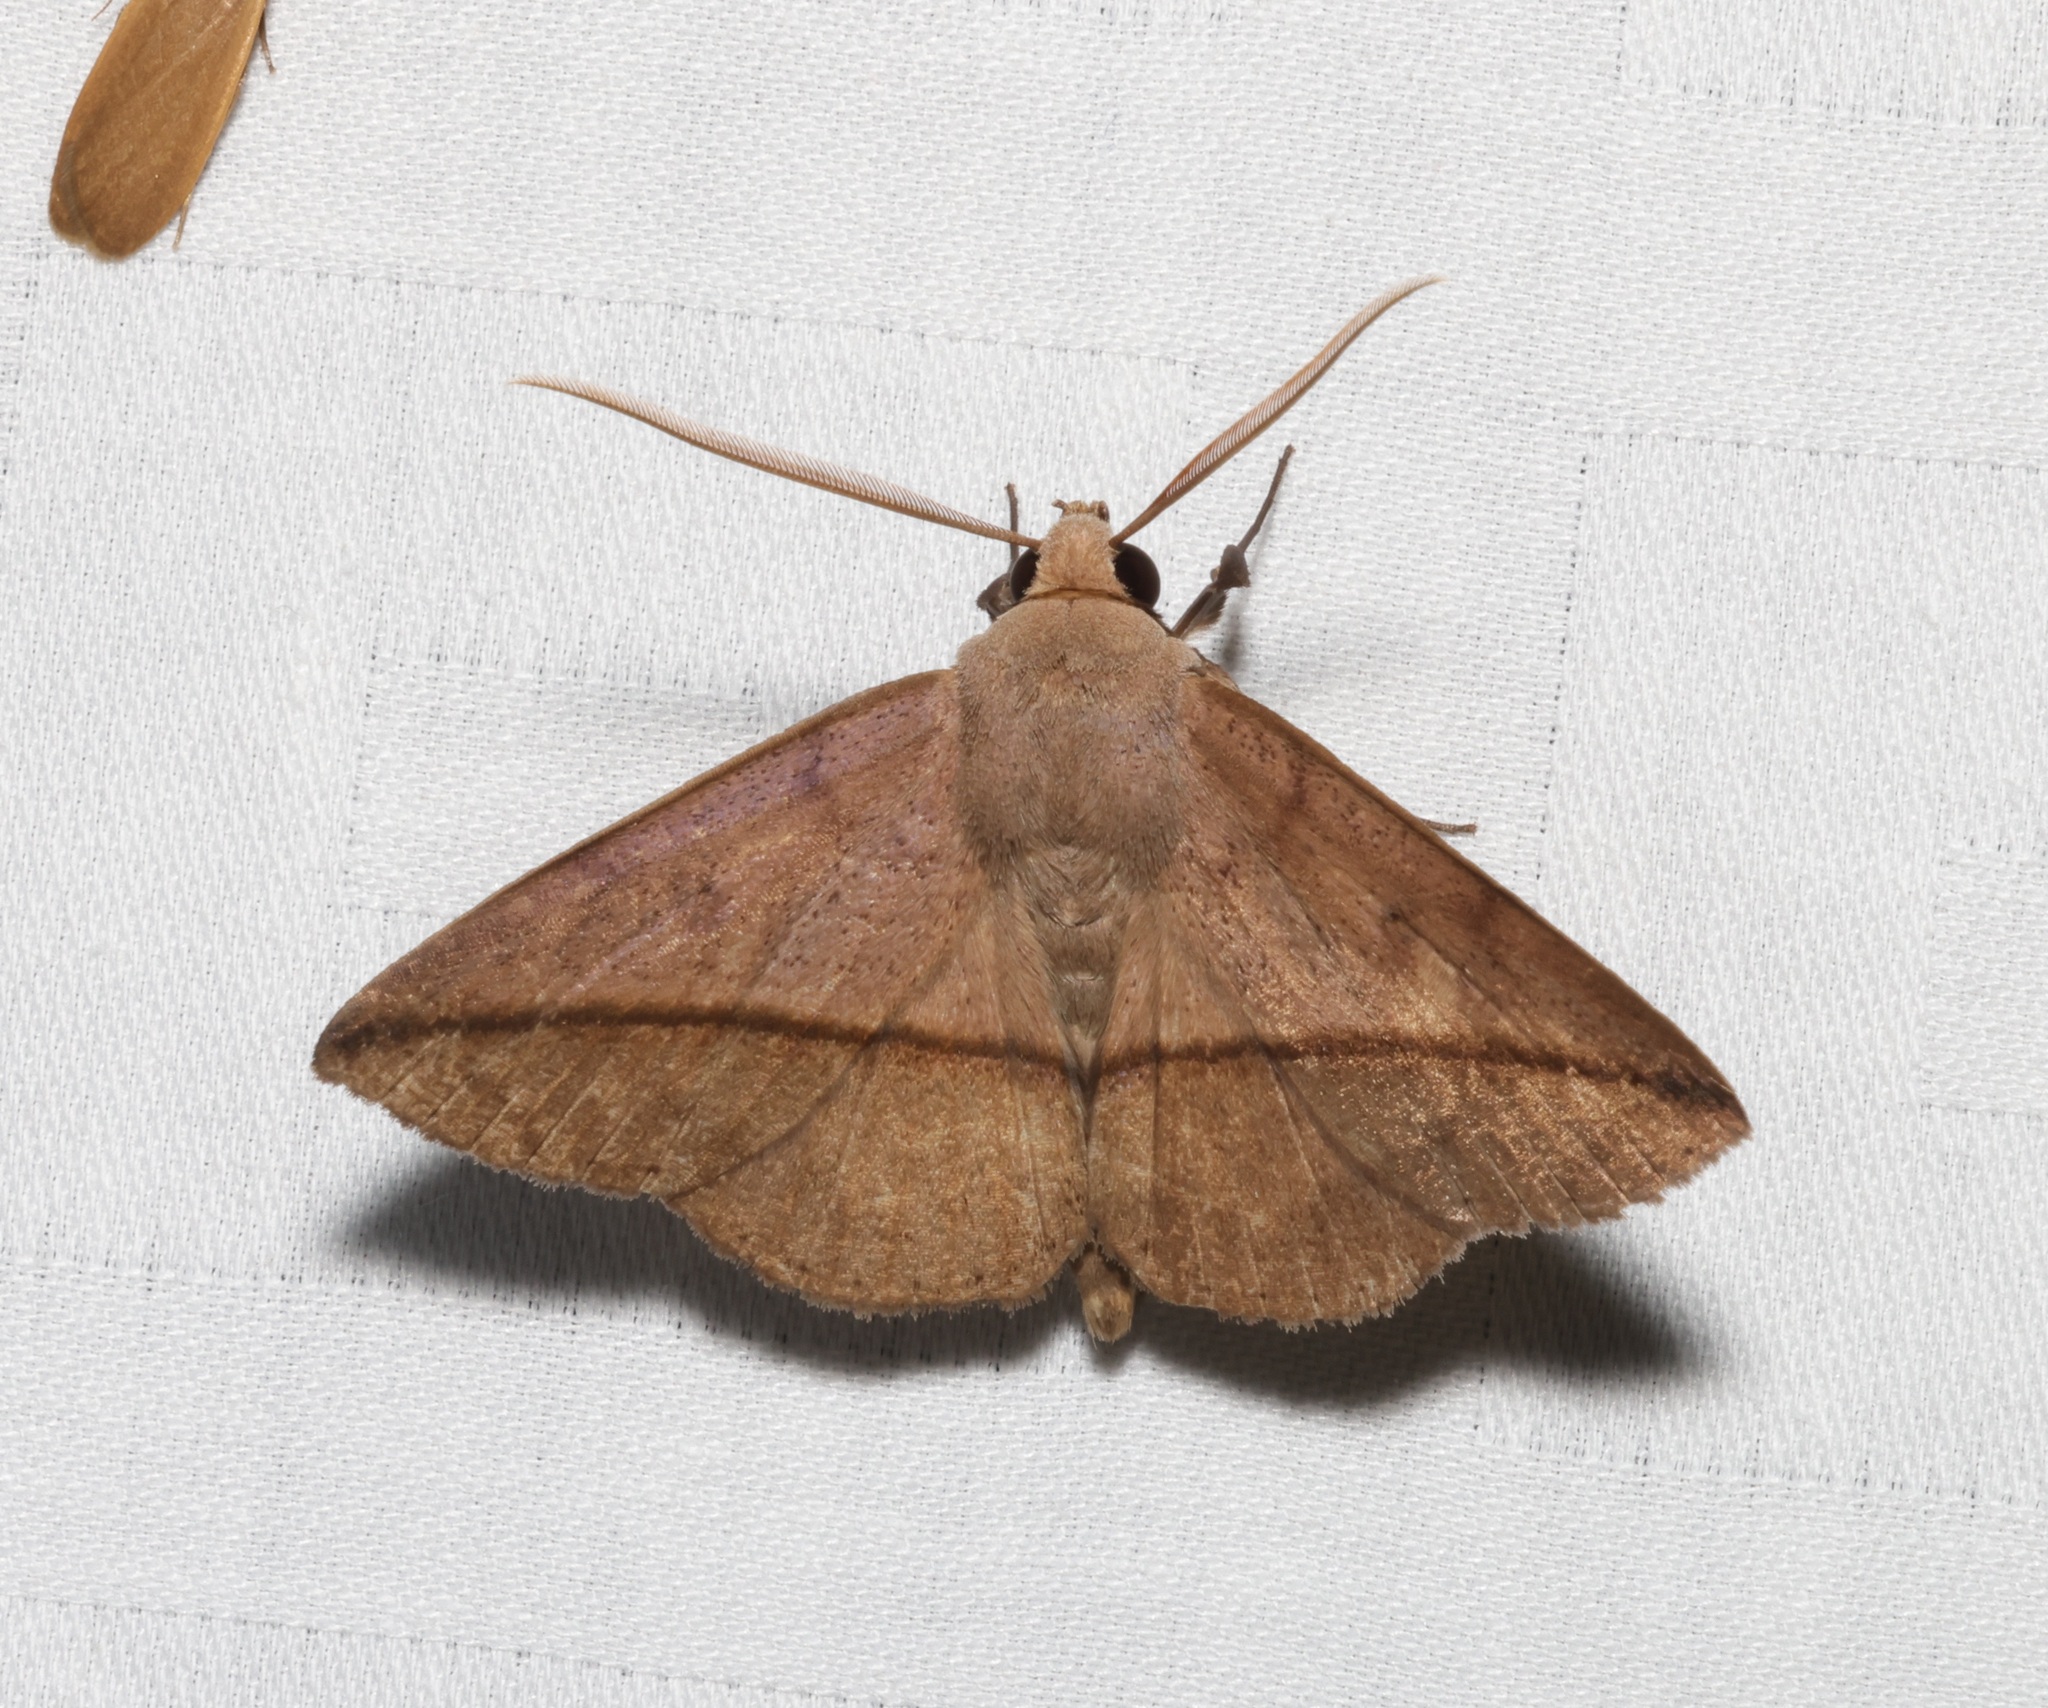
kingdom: Animalia
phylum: Arthropoda
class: Insecta
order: Lepidoptera
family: Erebidae
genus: Ugia
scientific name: Ugia purpurea
